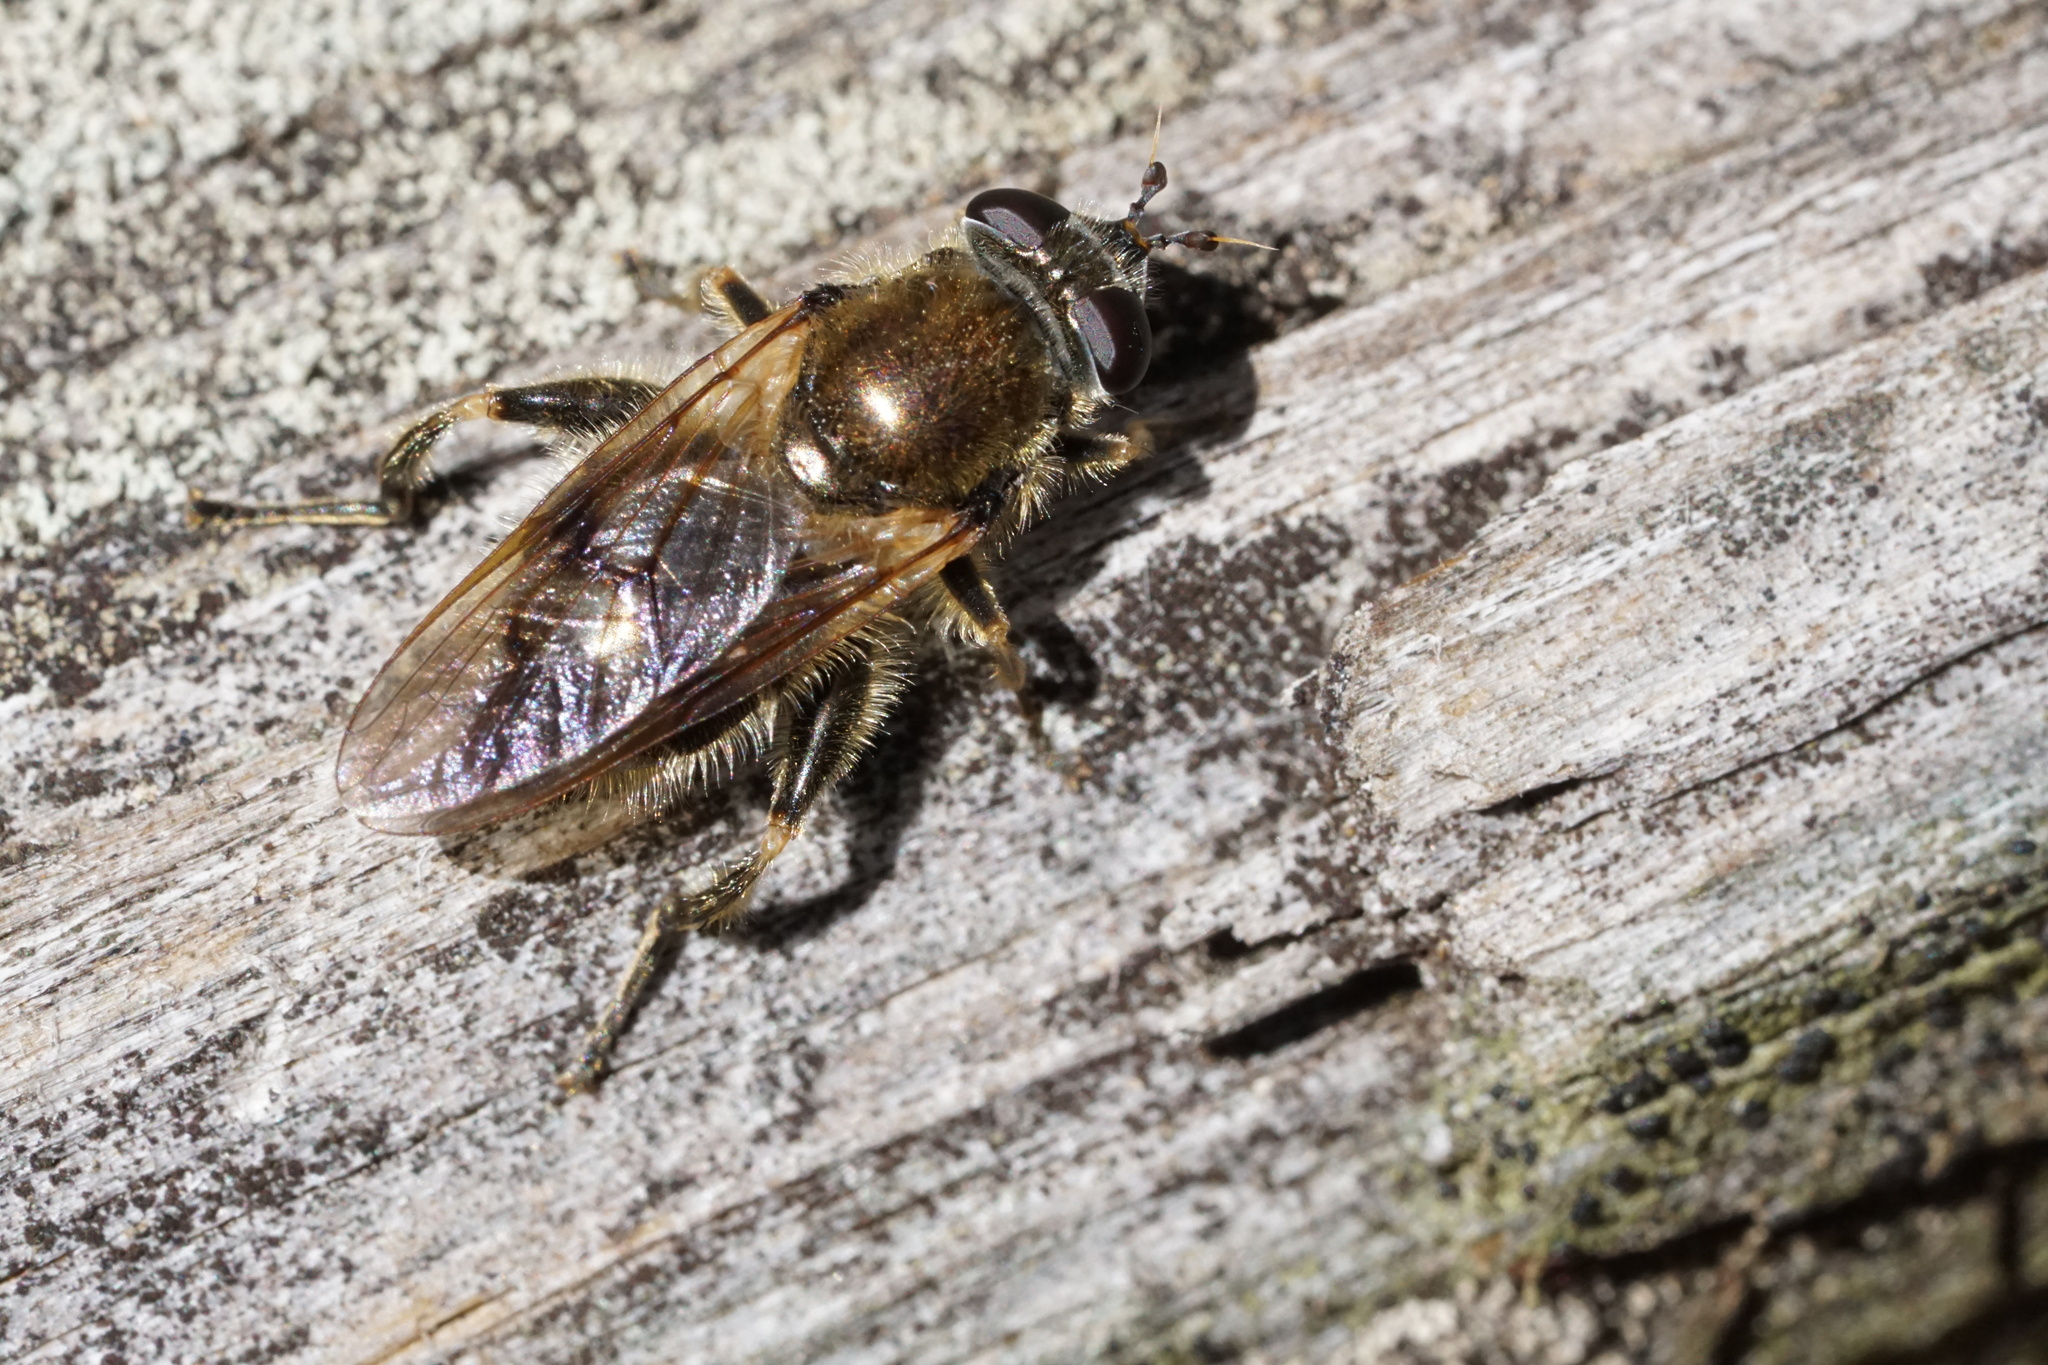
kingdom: Animalia
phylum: Arthropoda
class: Insecta
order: Diptera
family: Syrphidae
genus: Brachypalpus
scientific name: Brachypalpus oarus
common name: Eastern catkin fly
